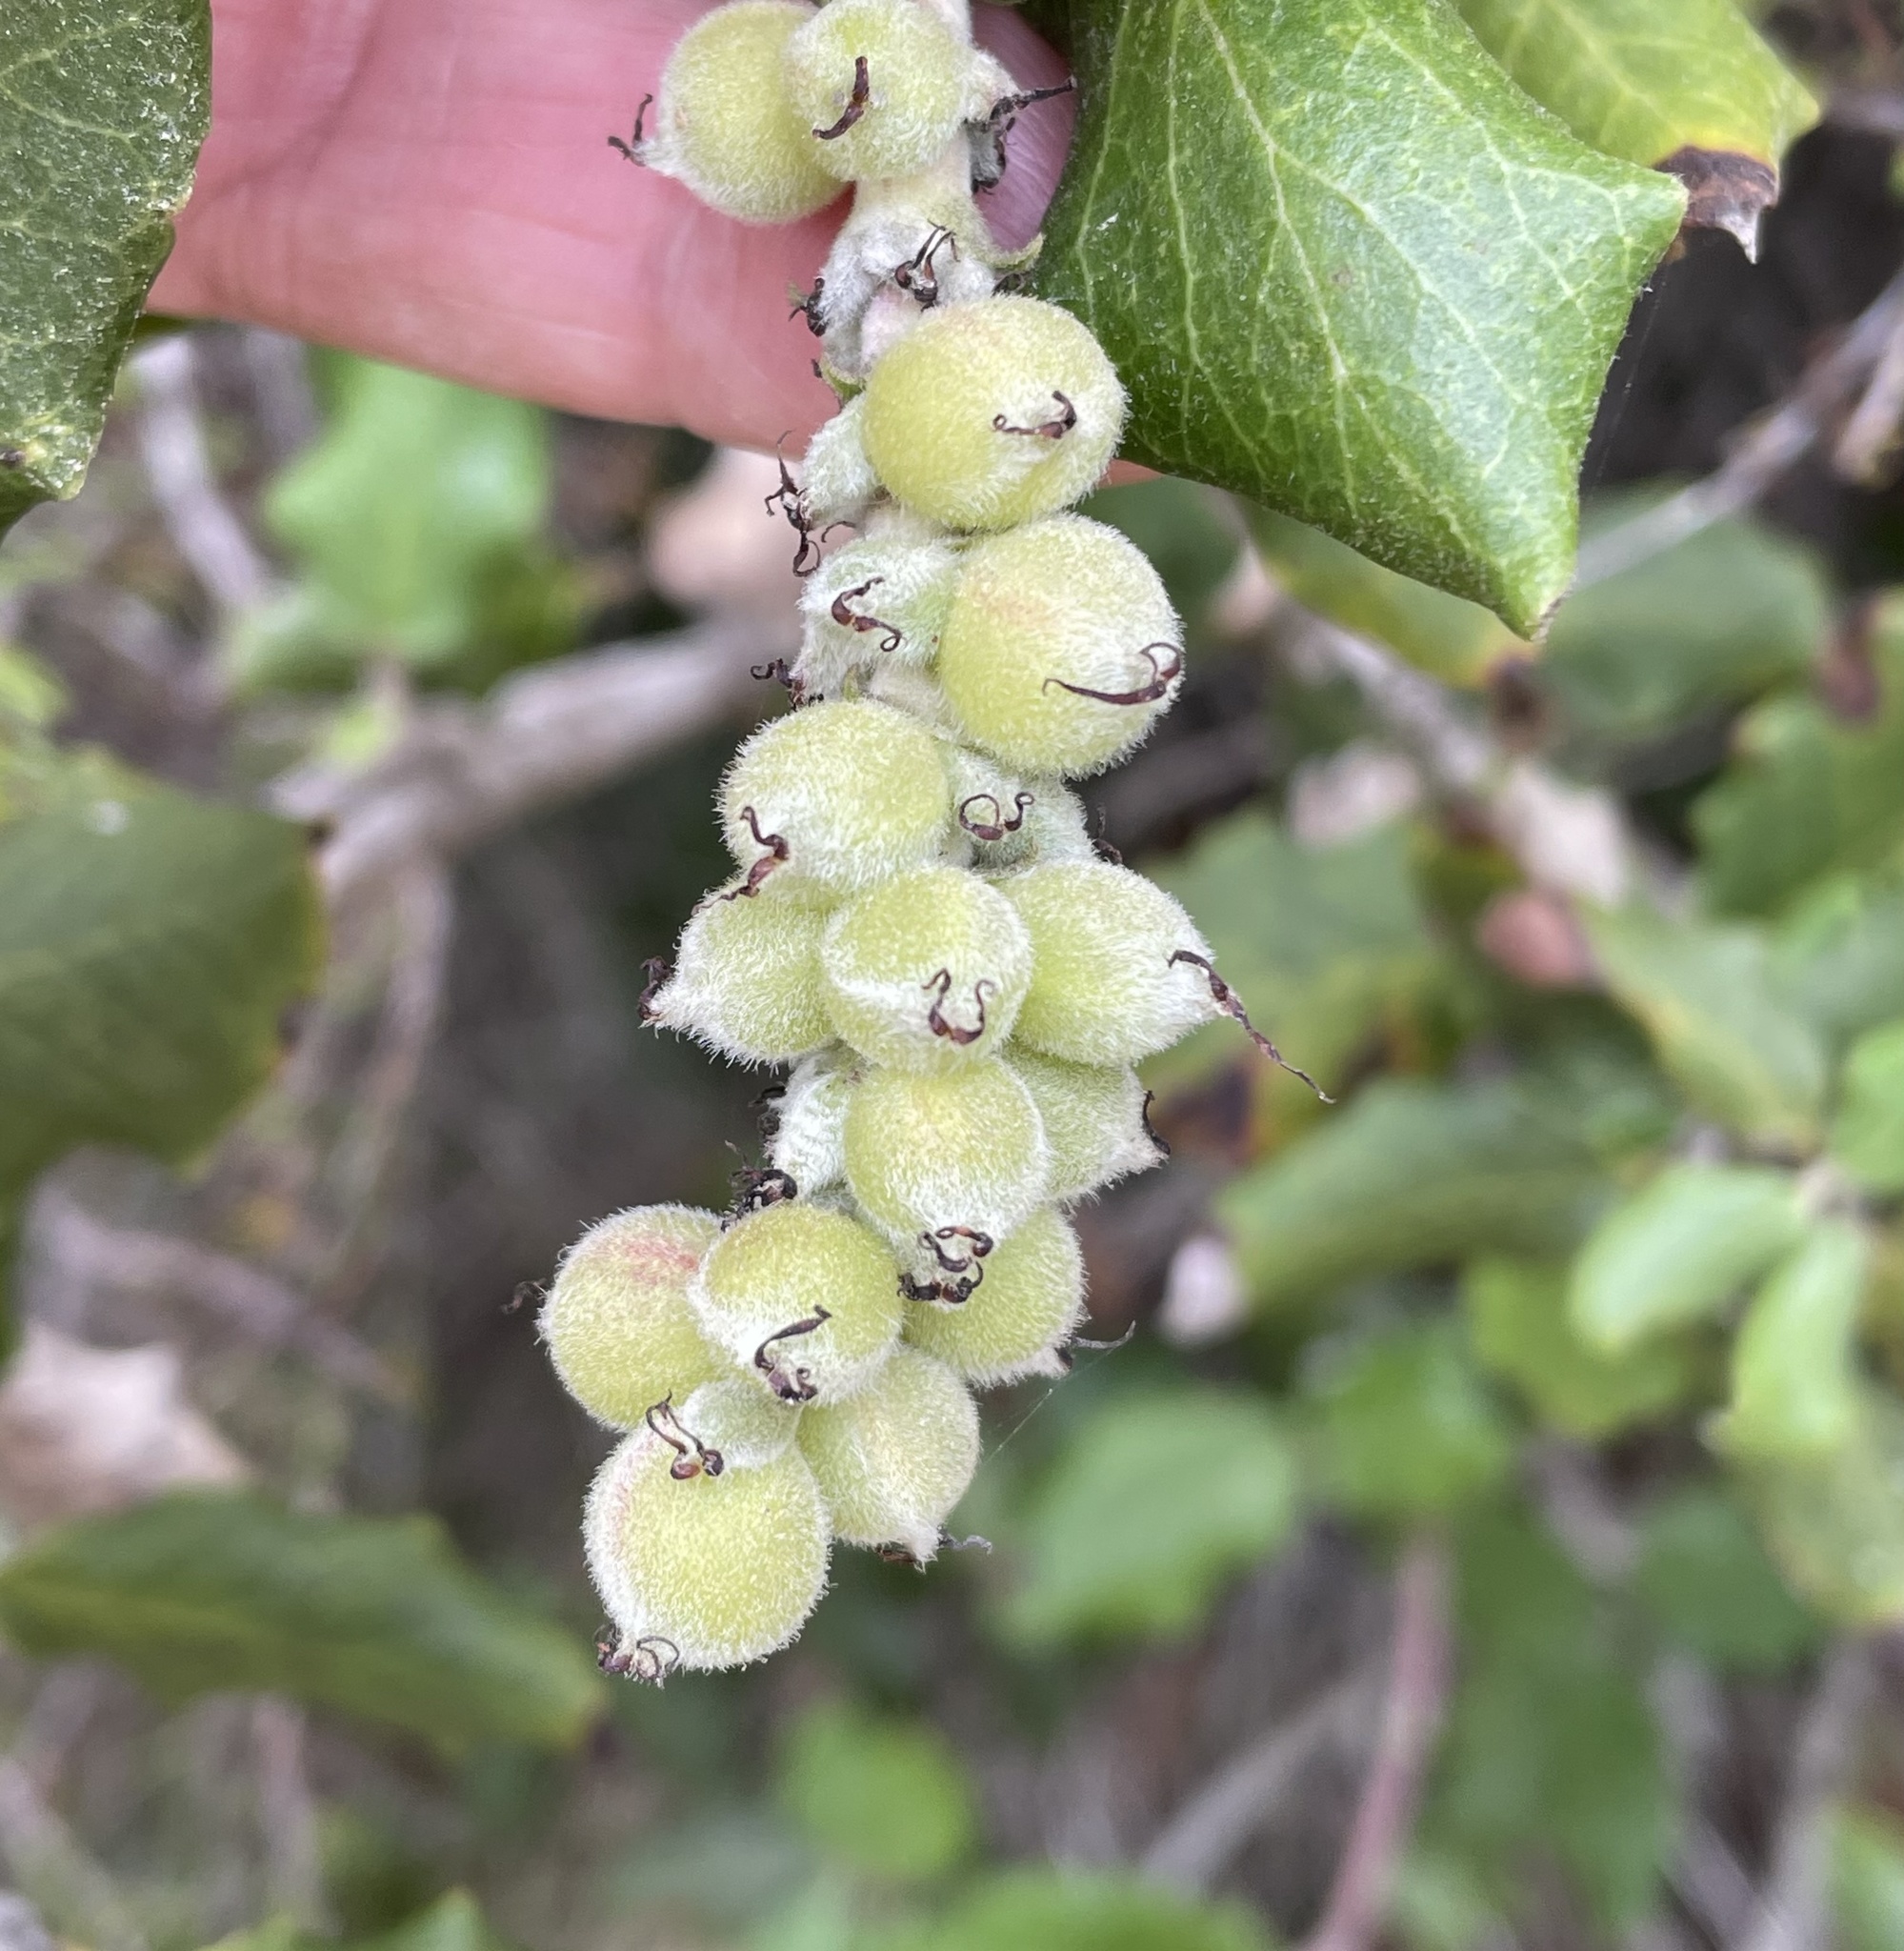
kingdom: Plantae
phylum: Tracheophyta
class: Magnoliopsida
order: Garryales
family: Garryaceae
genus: Garrya
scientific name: Garrya elliptica
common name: Silk-tassel
